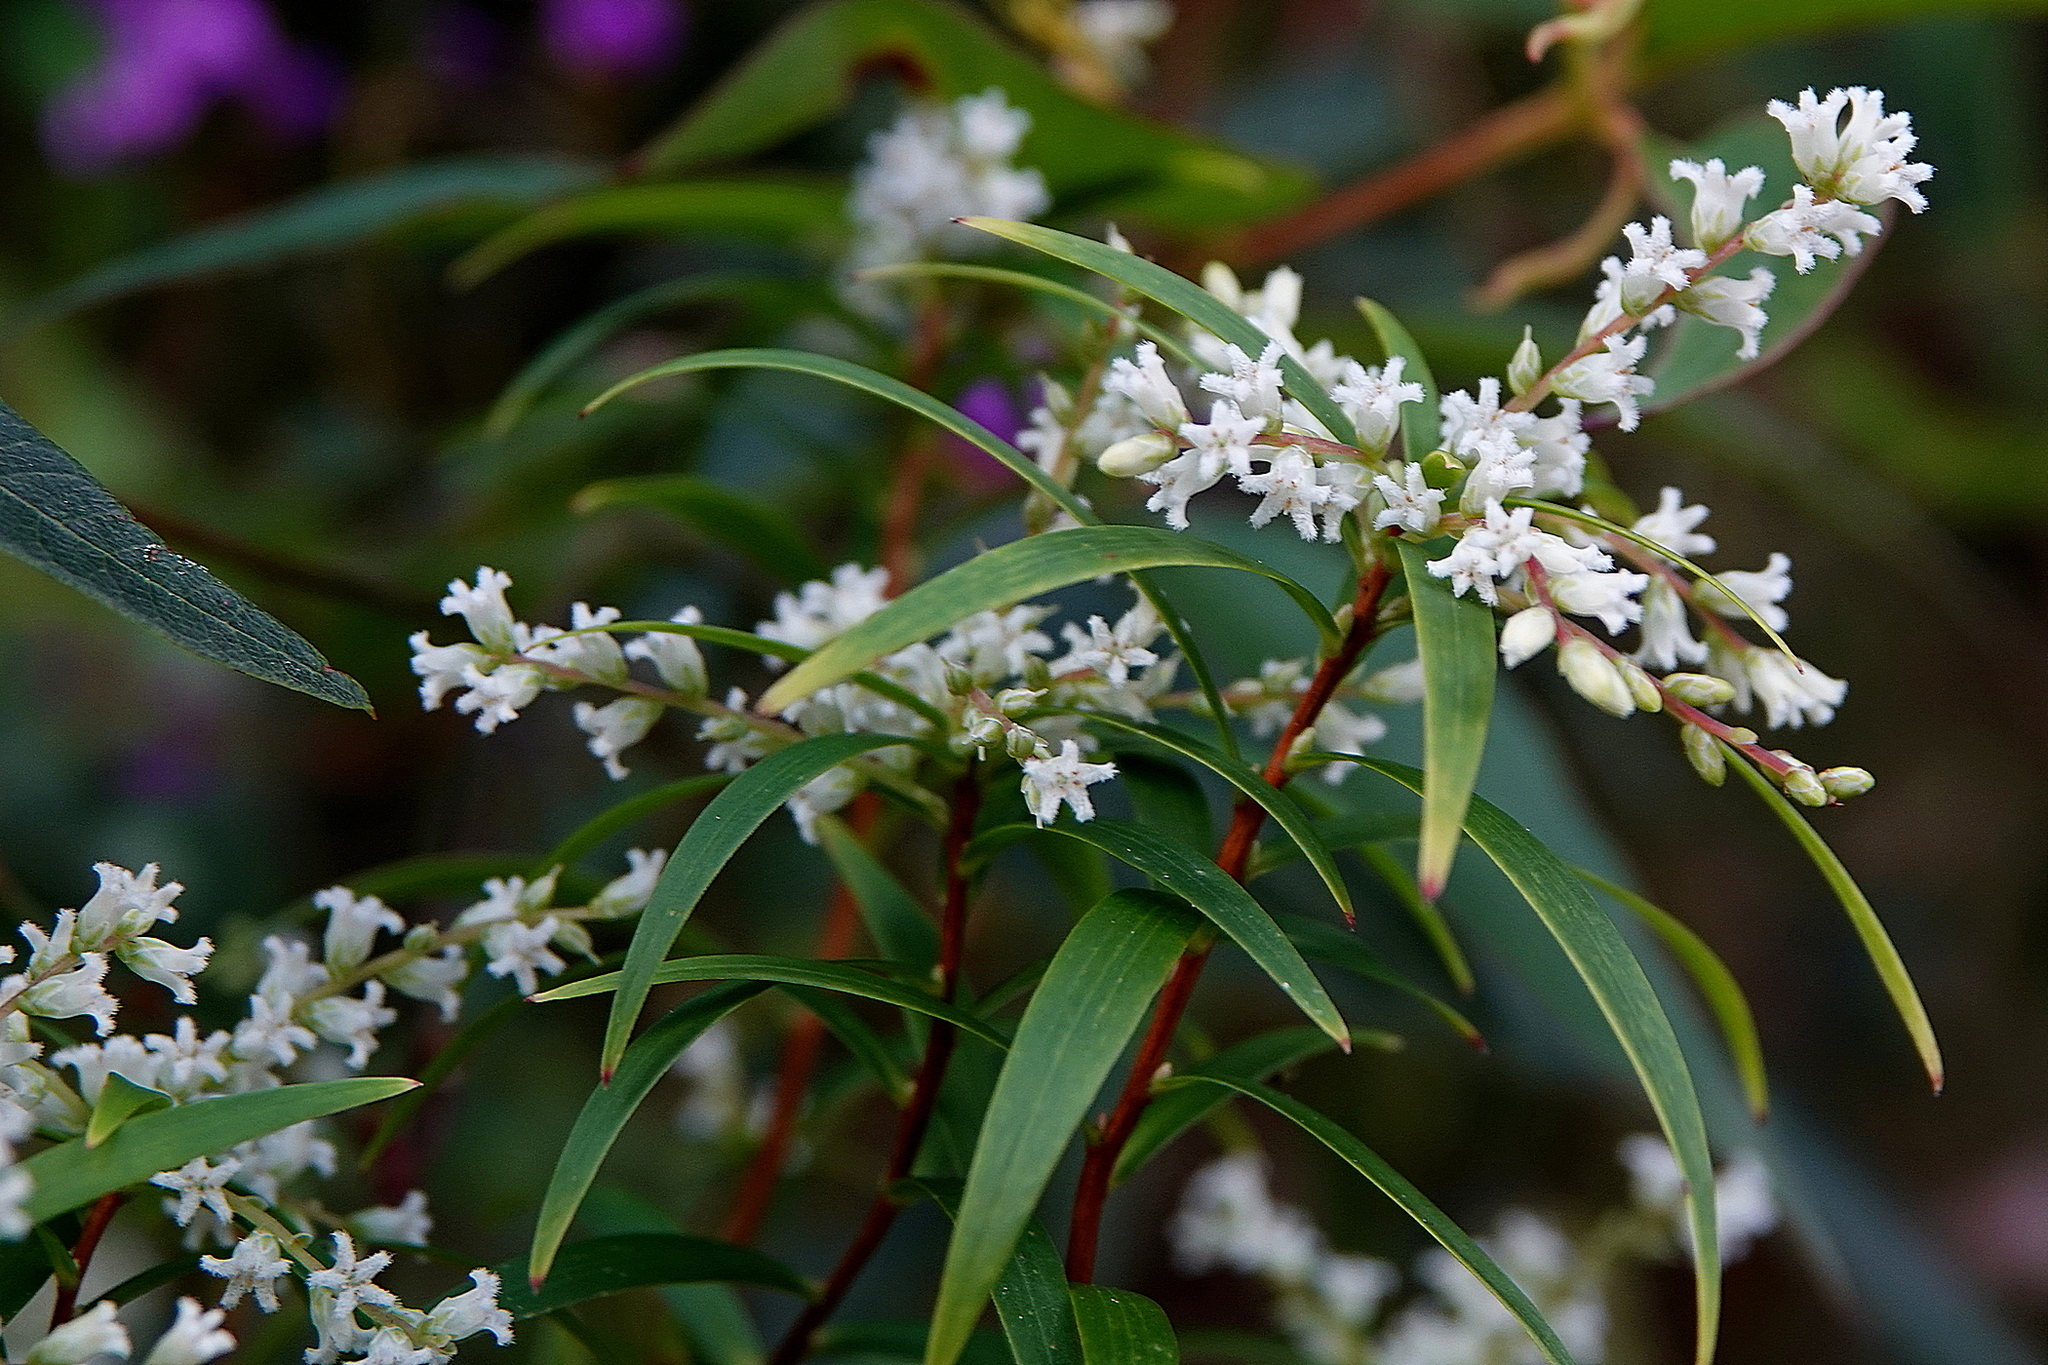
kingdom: Plantae
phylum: Tracheophyta
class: Magnoliopsida
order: Ericales
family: Ericaceae
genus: Leucopogon
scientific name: Leucopogon lanceolatus
